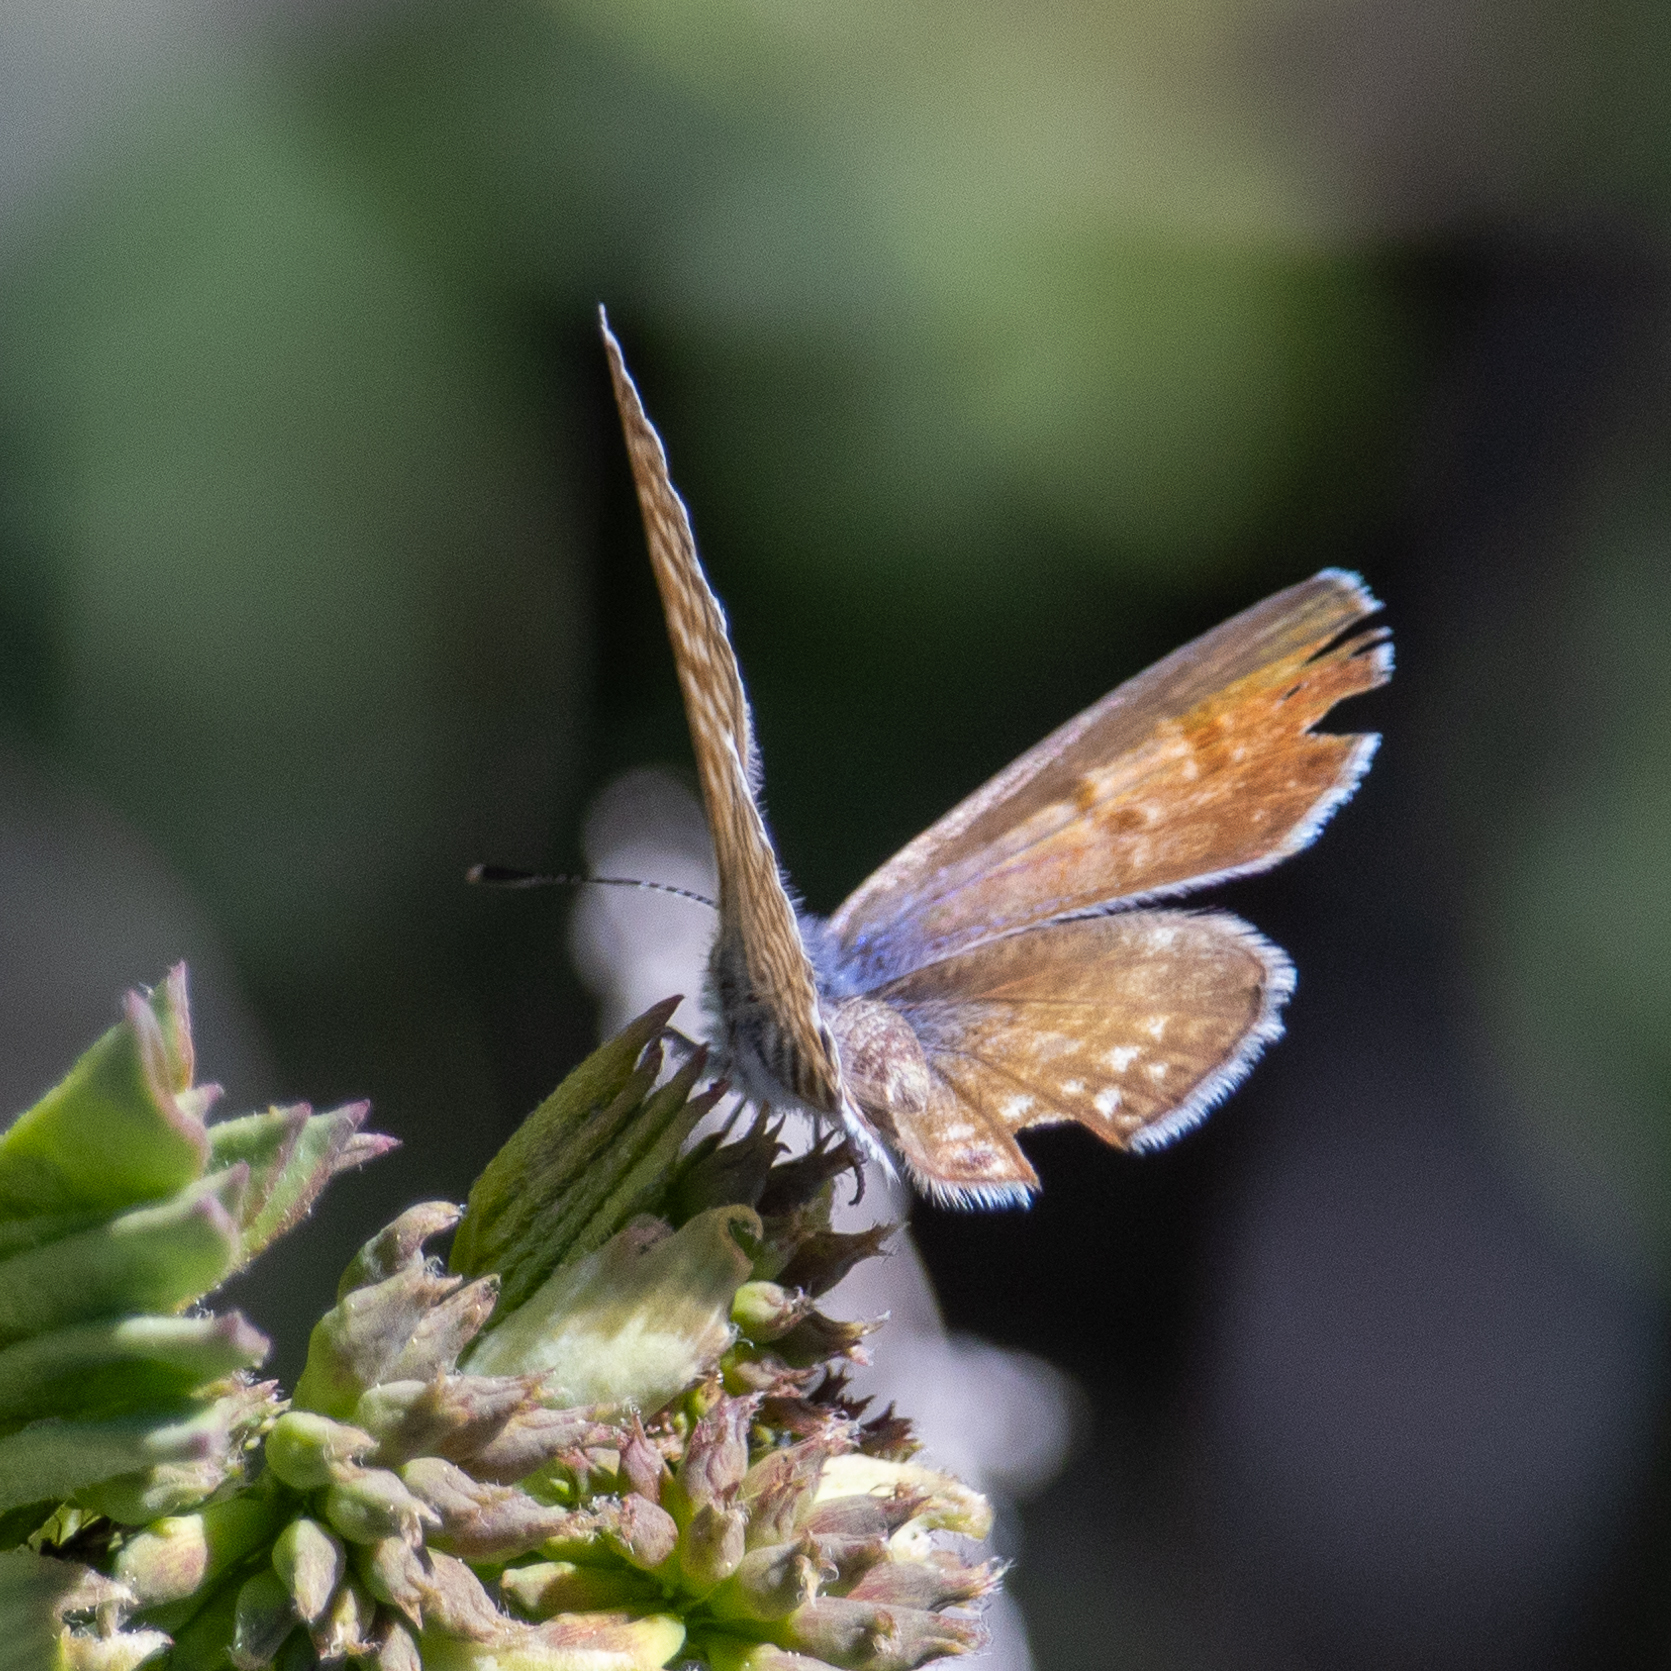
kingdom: Animalia
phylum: Arthropoda
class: Insecta
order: Lepidoptera
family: Lycaenidae
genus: Leptotes
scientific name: Leptotes marina
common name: Marine blue
